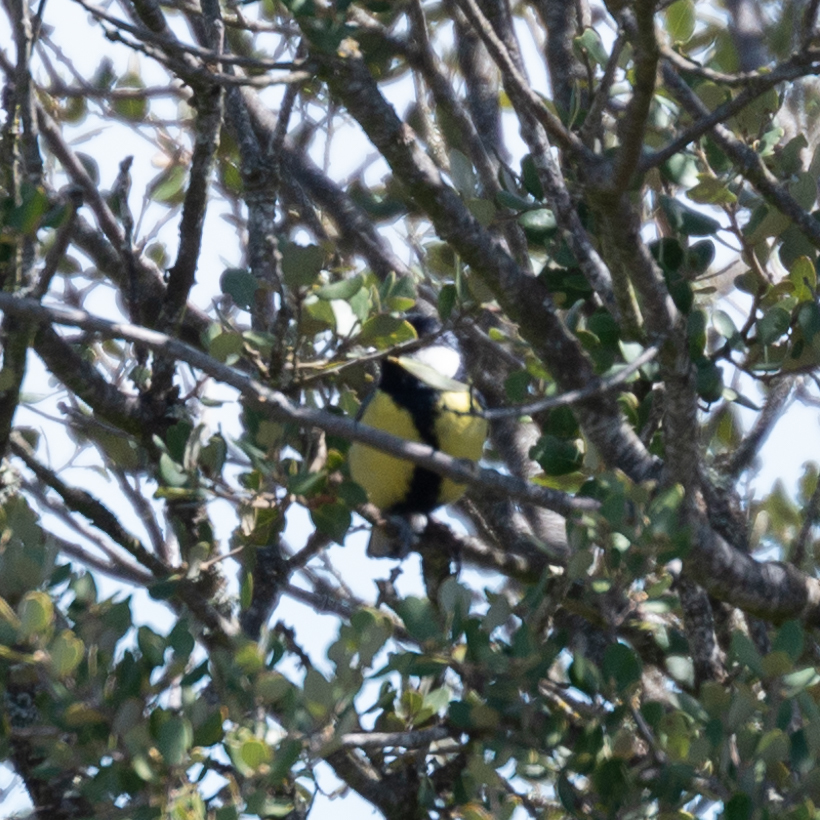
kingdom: Animalia
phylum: Chordata
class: Aves
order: Passeriformes
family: Paridae
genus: Parus
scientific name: Parus major
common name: Great tit
